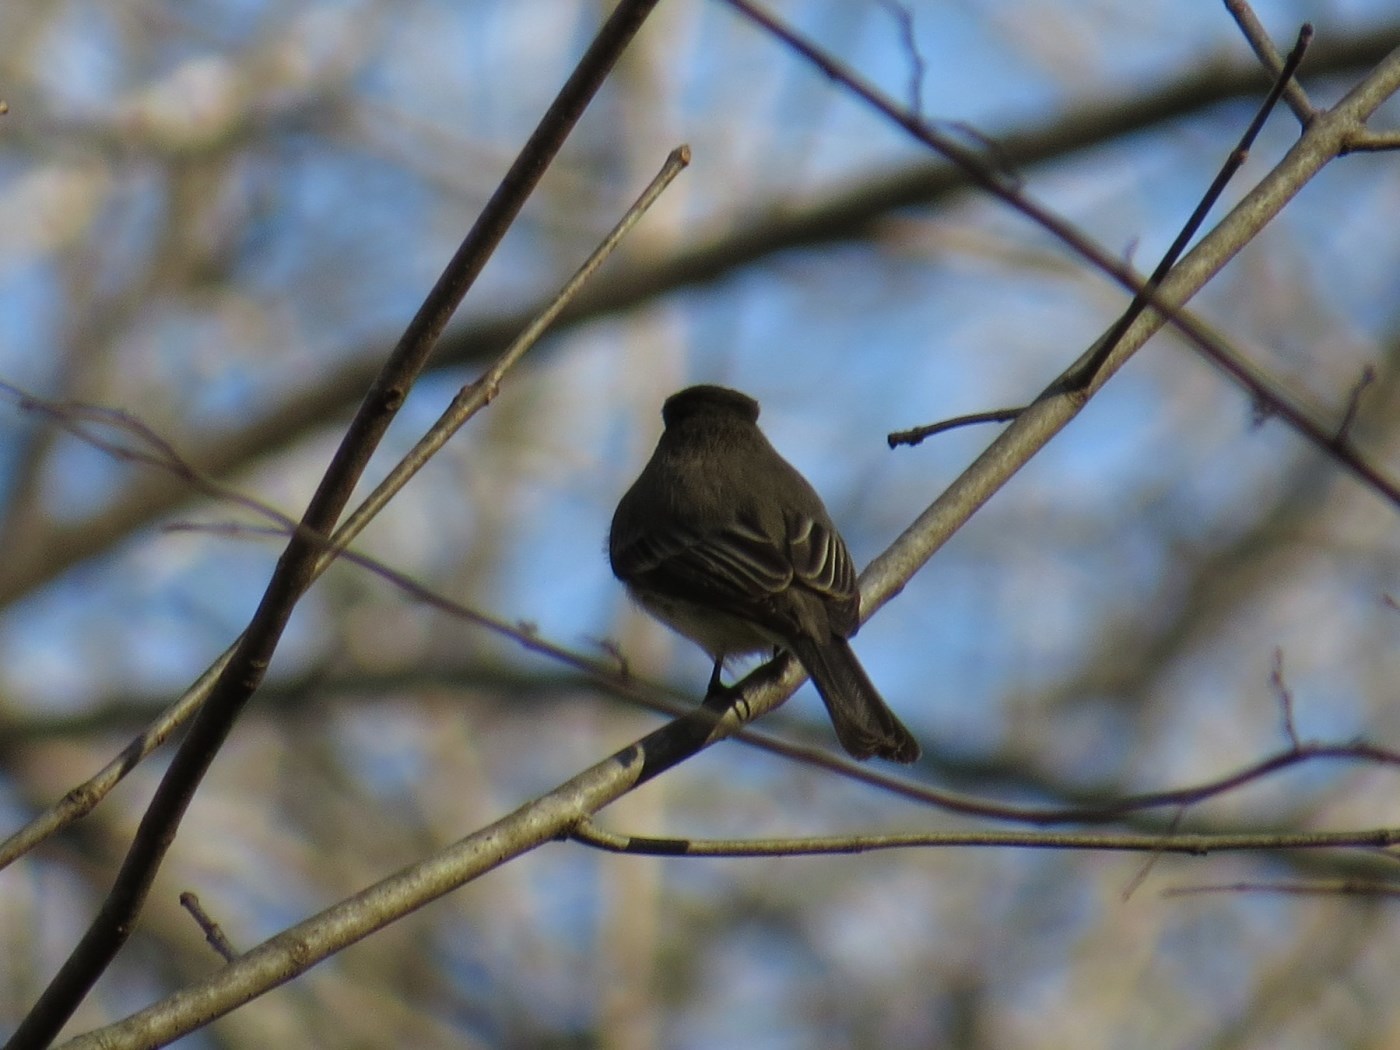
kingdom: Animalia
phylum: Chordata
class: Aves
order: Passeriformes
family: Tyrannidae
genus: Sayornis
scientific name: Sayornis phoebe
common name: Eastern phoebe
